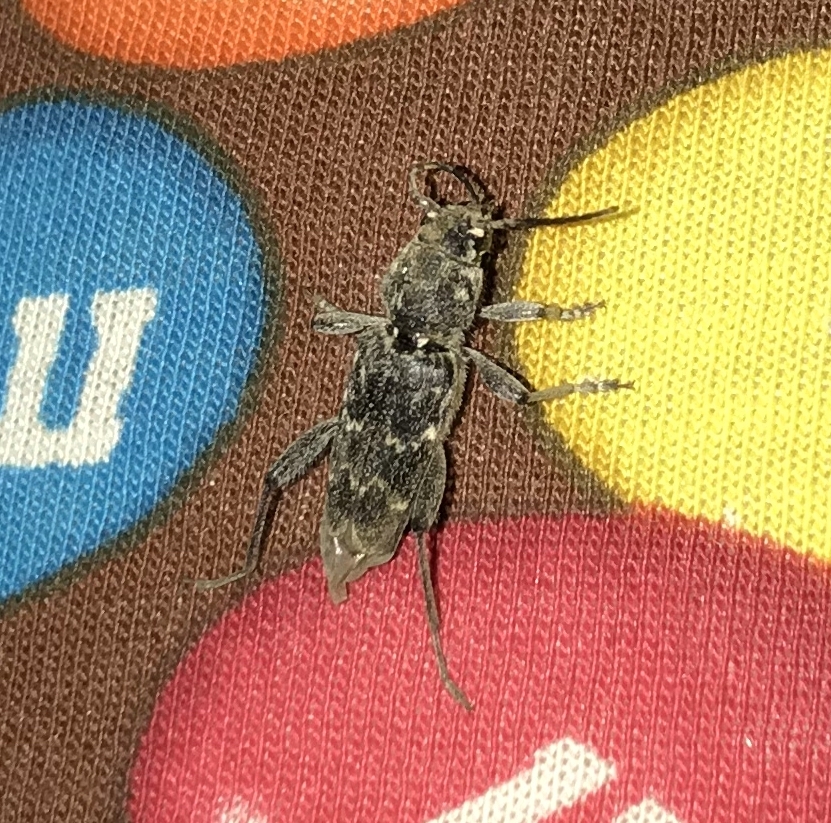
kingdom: Animalia
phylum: Arthropoda
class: Insecta
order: Coleoptera
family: Cerambycidae
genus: Xylotrechus
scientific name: Xylotrechus nauticus
